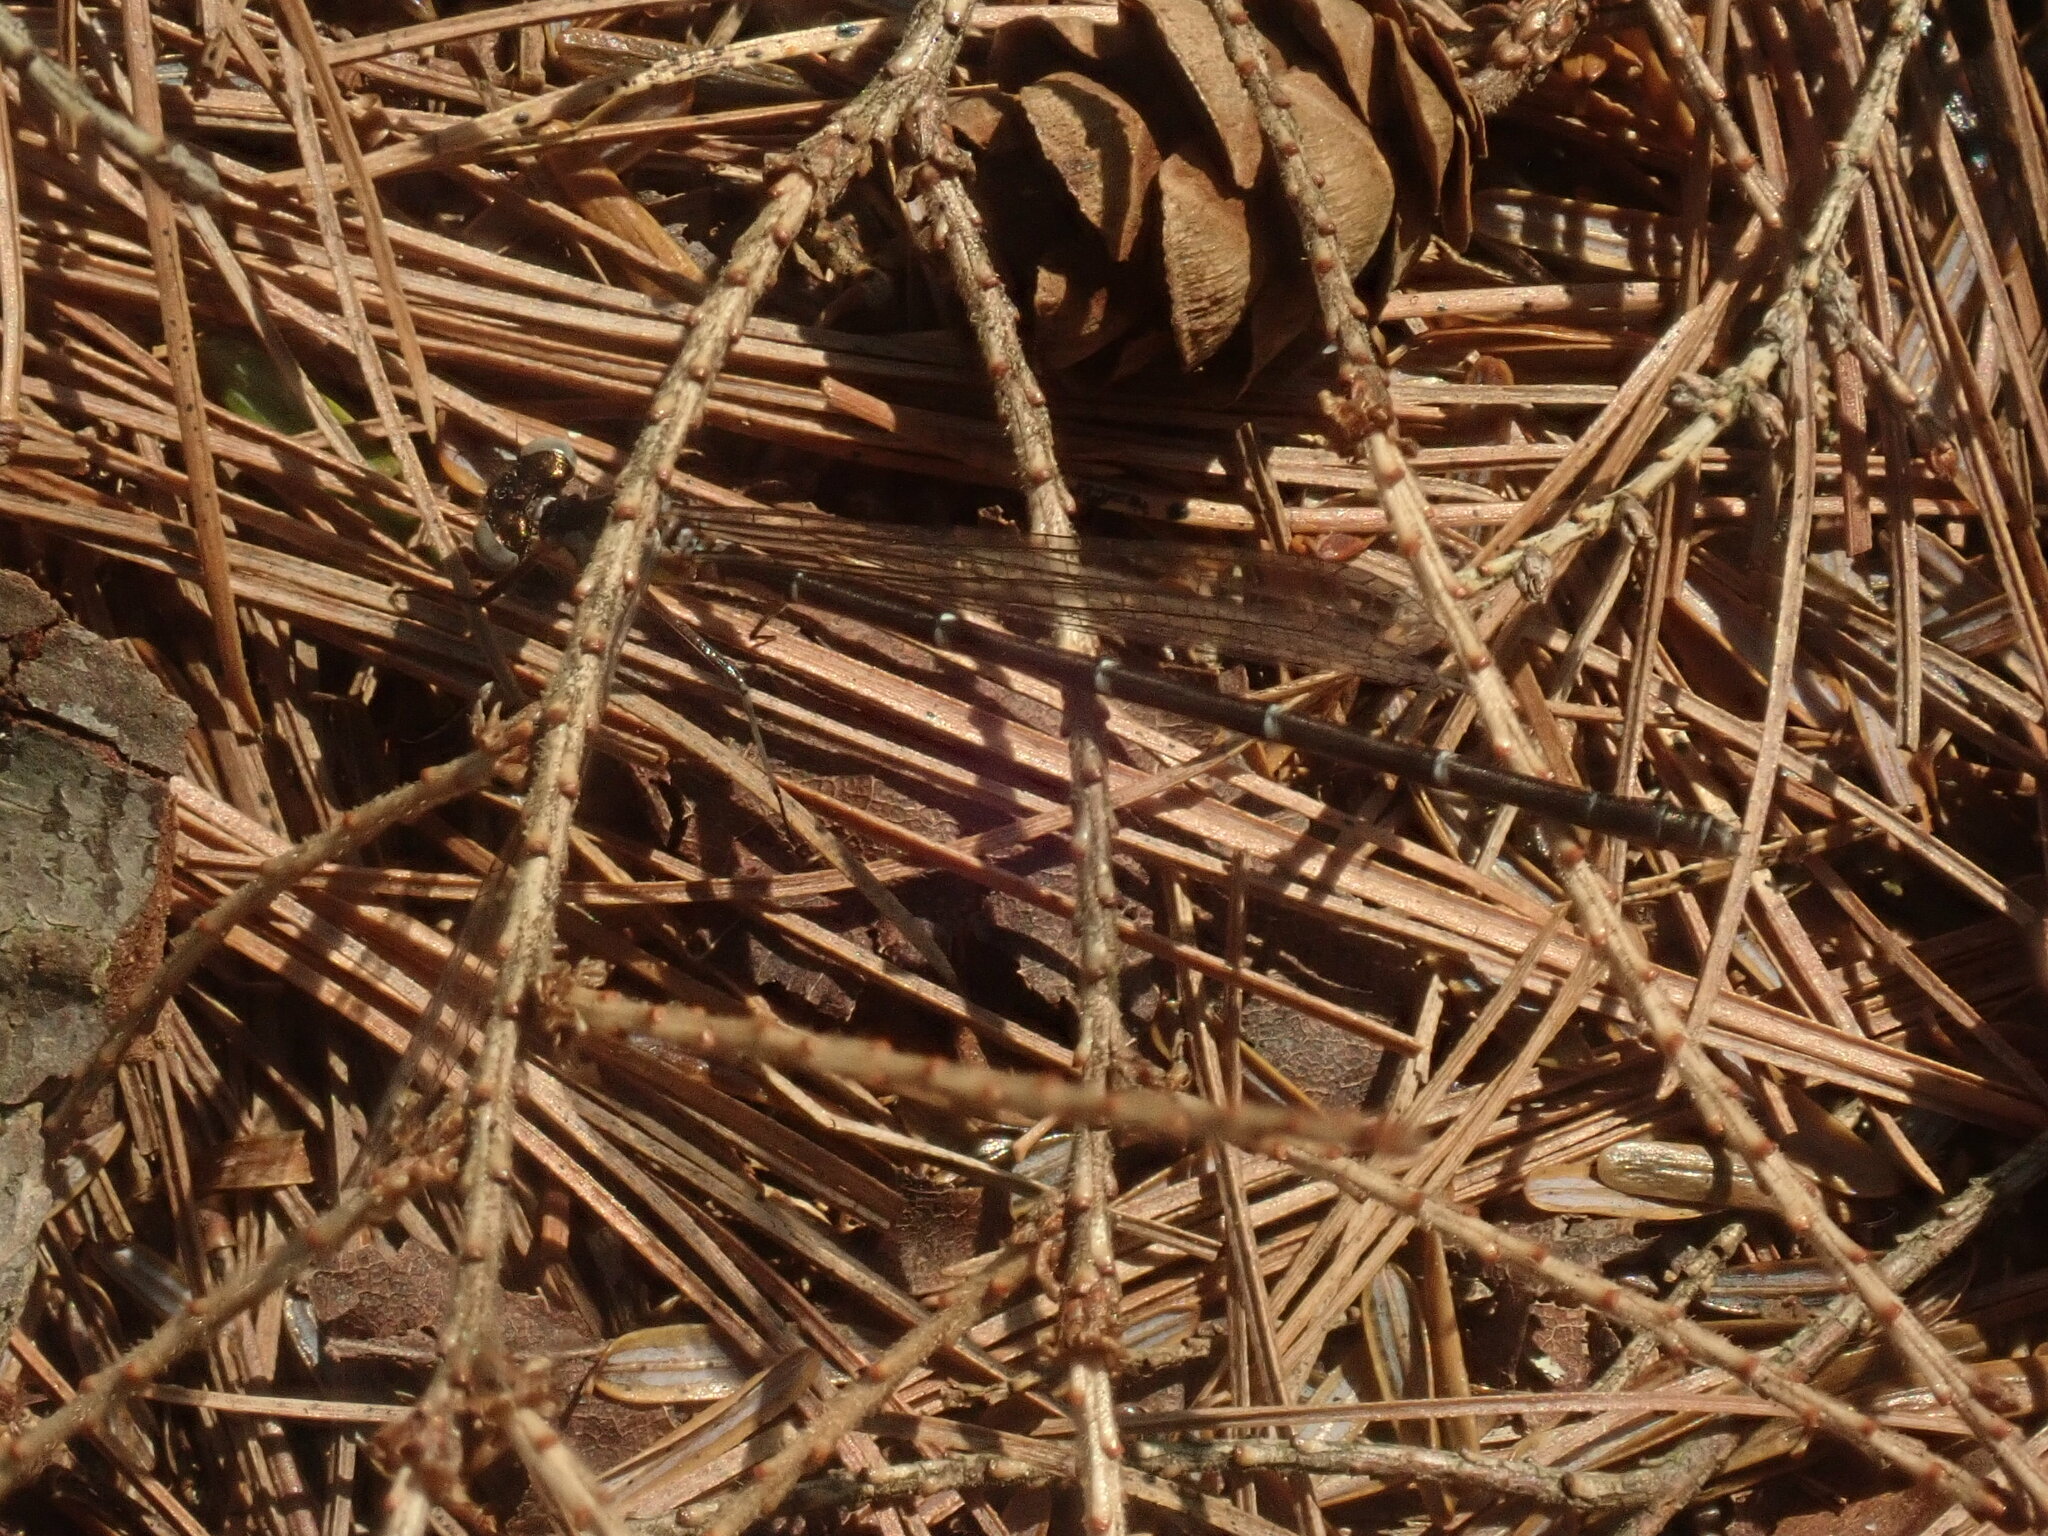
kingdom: Animalia
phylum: Arthropoda
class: Insecta
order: Odonata
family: Coenagrionidae
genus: Chromagrion
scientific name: Chromagrion conditum
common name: Aurora damsel
